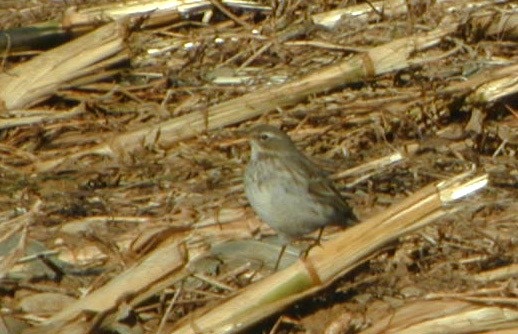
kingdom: Animalia
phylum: Chordata
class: Aves
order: Passeriformes
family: Motacillidae
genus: Anthus
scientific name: Anthus spinoletta
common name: Water pipit
